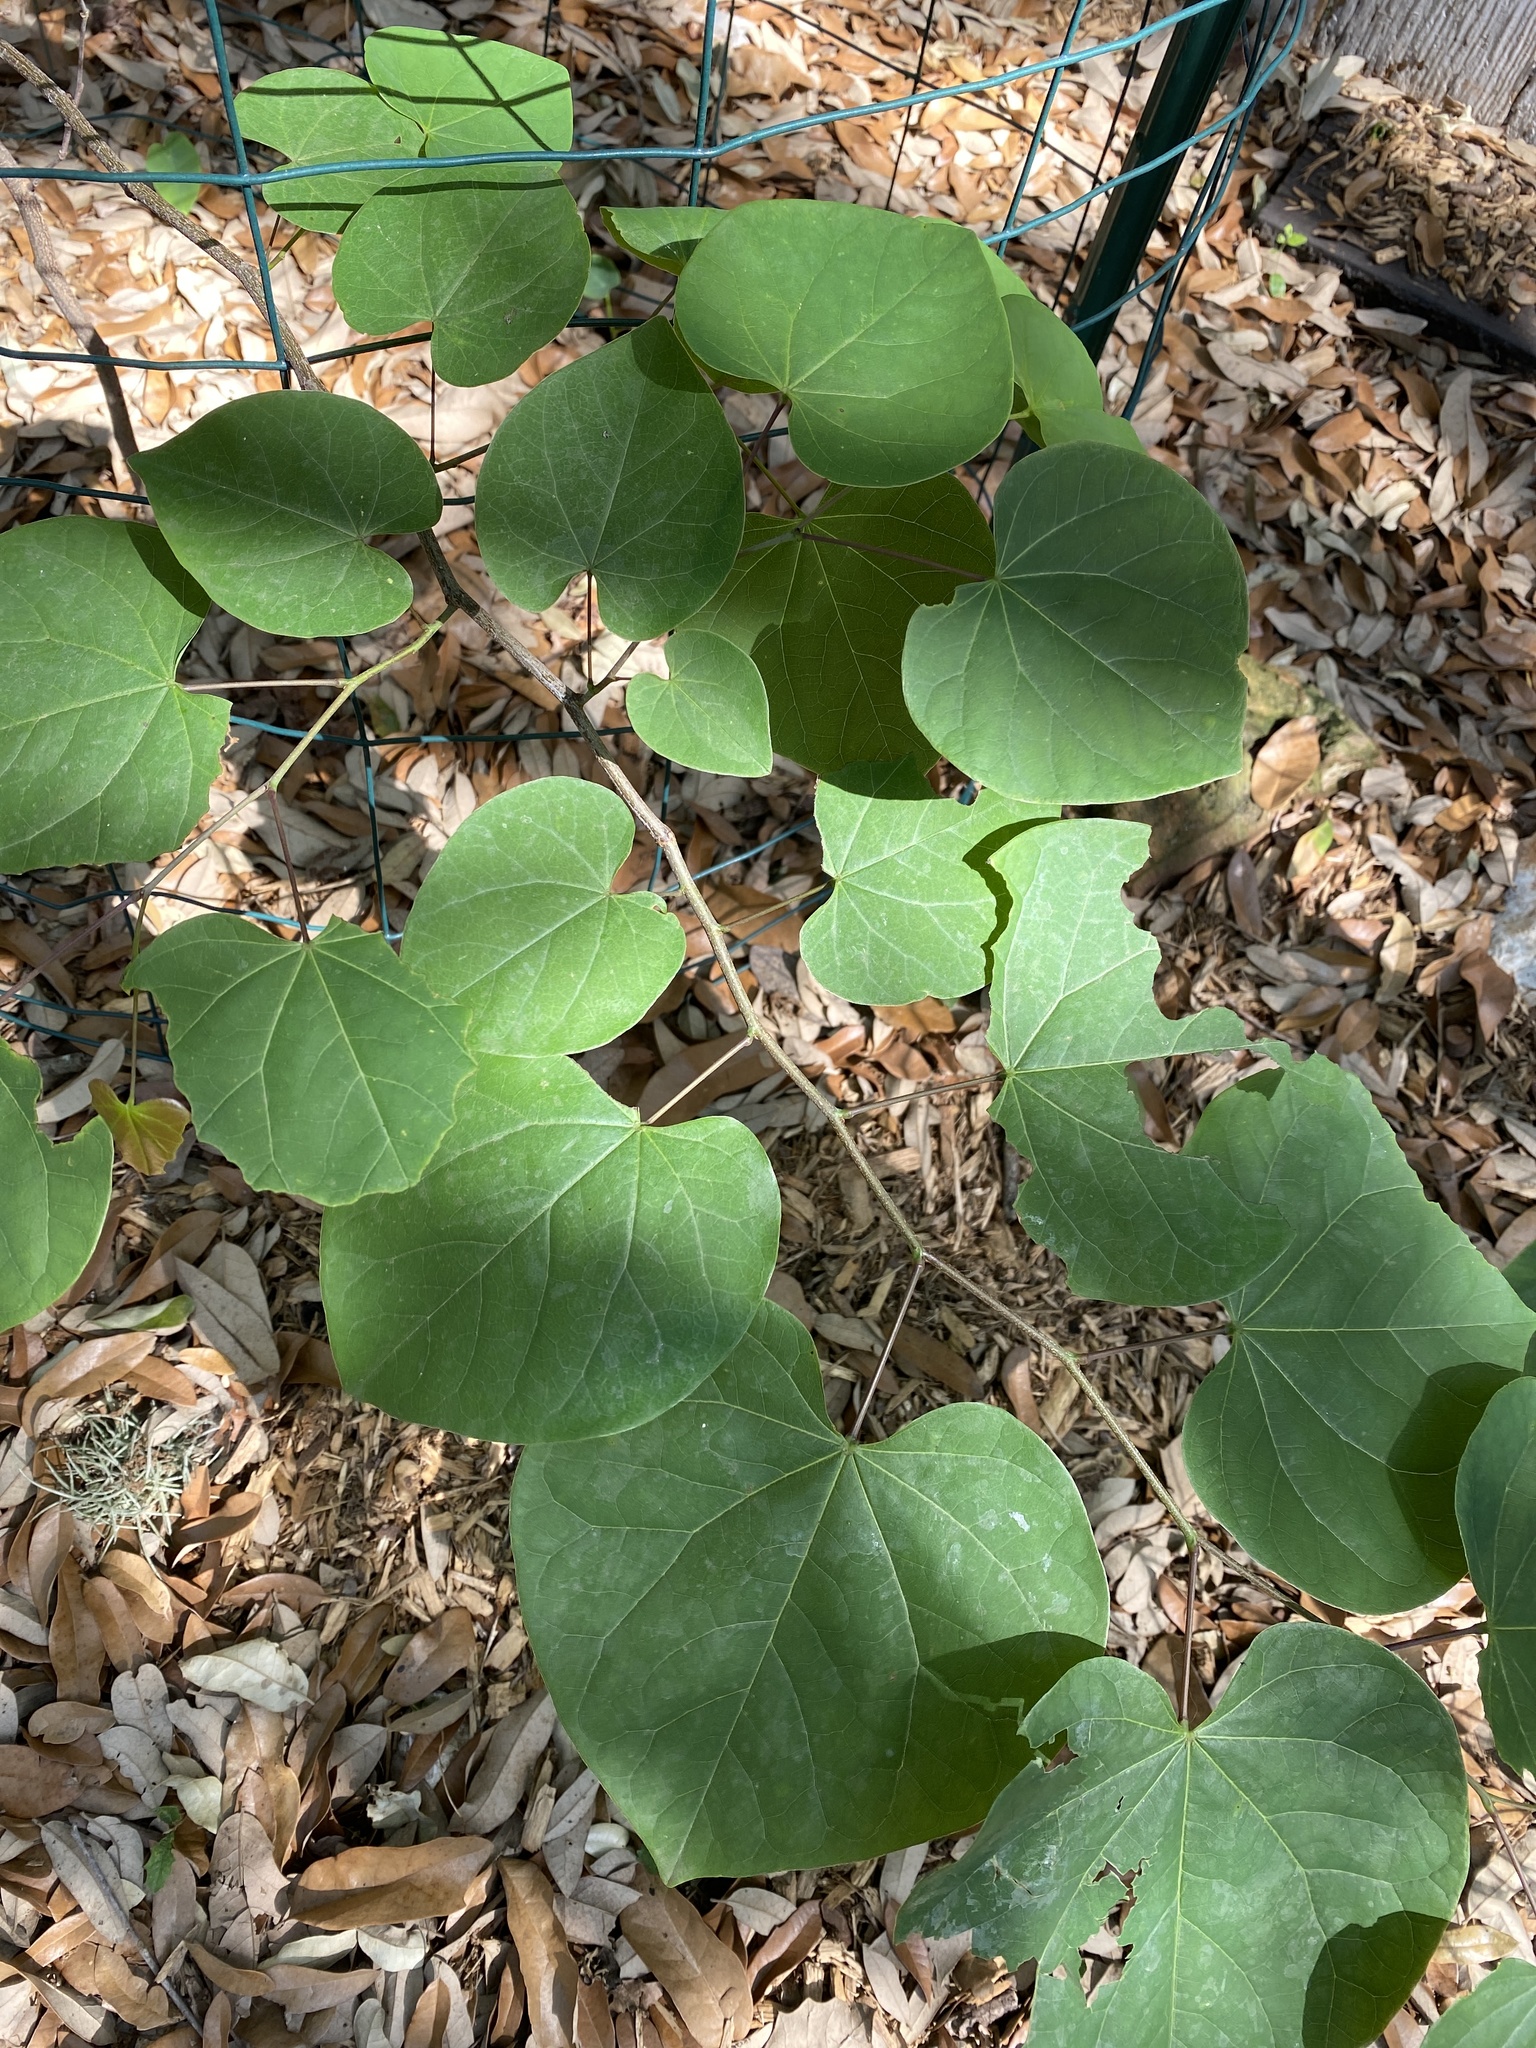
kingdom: Plantae
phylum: Tracheophyta
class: Magnoliopsida
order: Fabales
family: Fabaceae
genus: Cercis
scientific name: Cercis canadensis
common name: Eastern redbud
